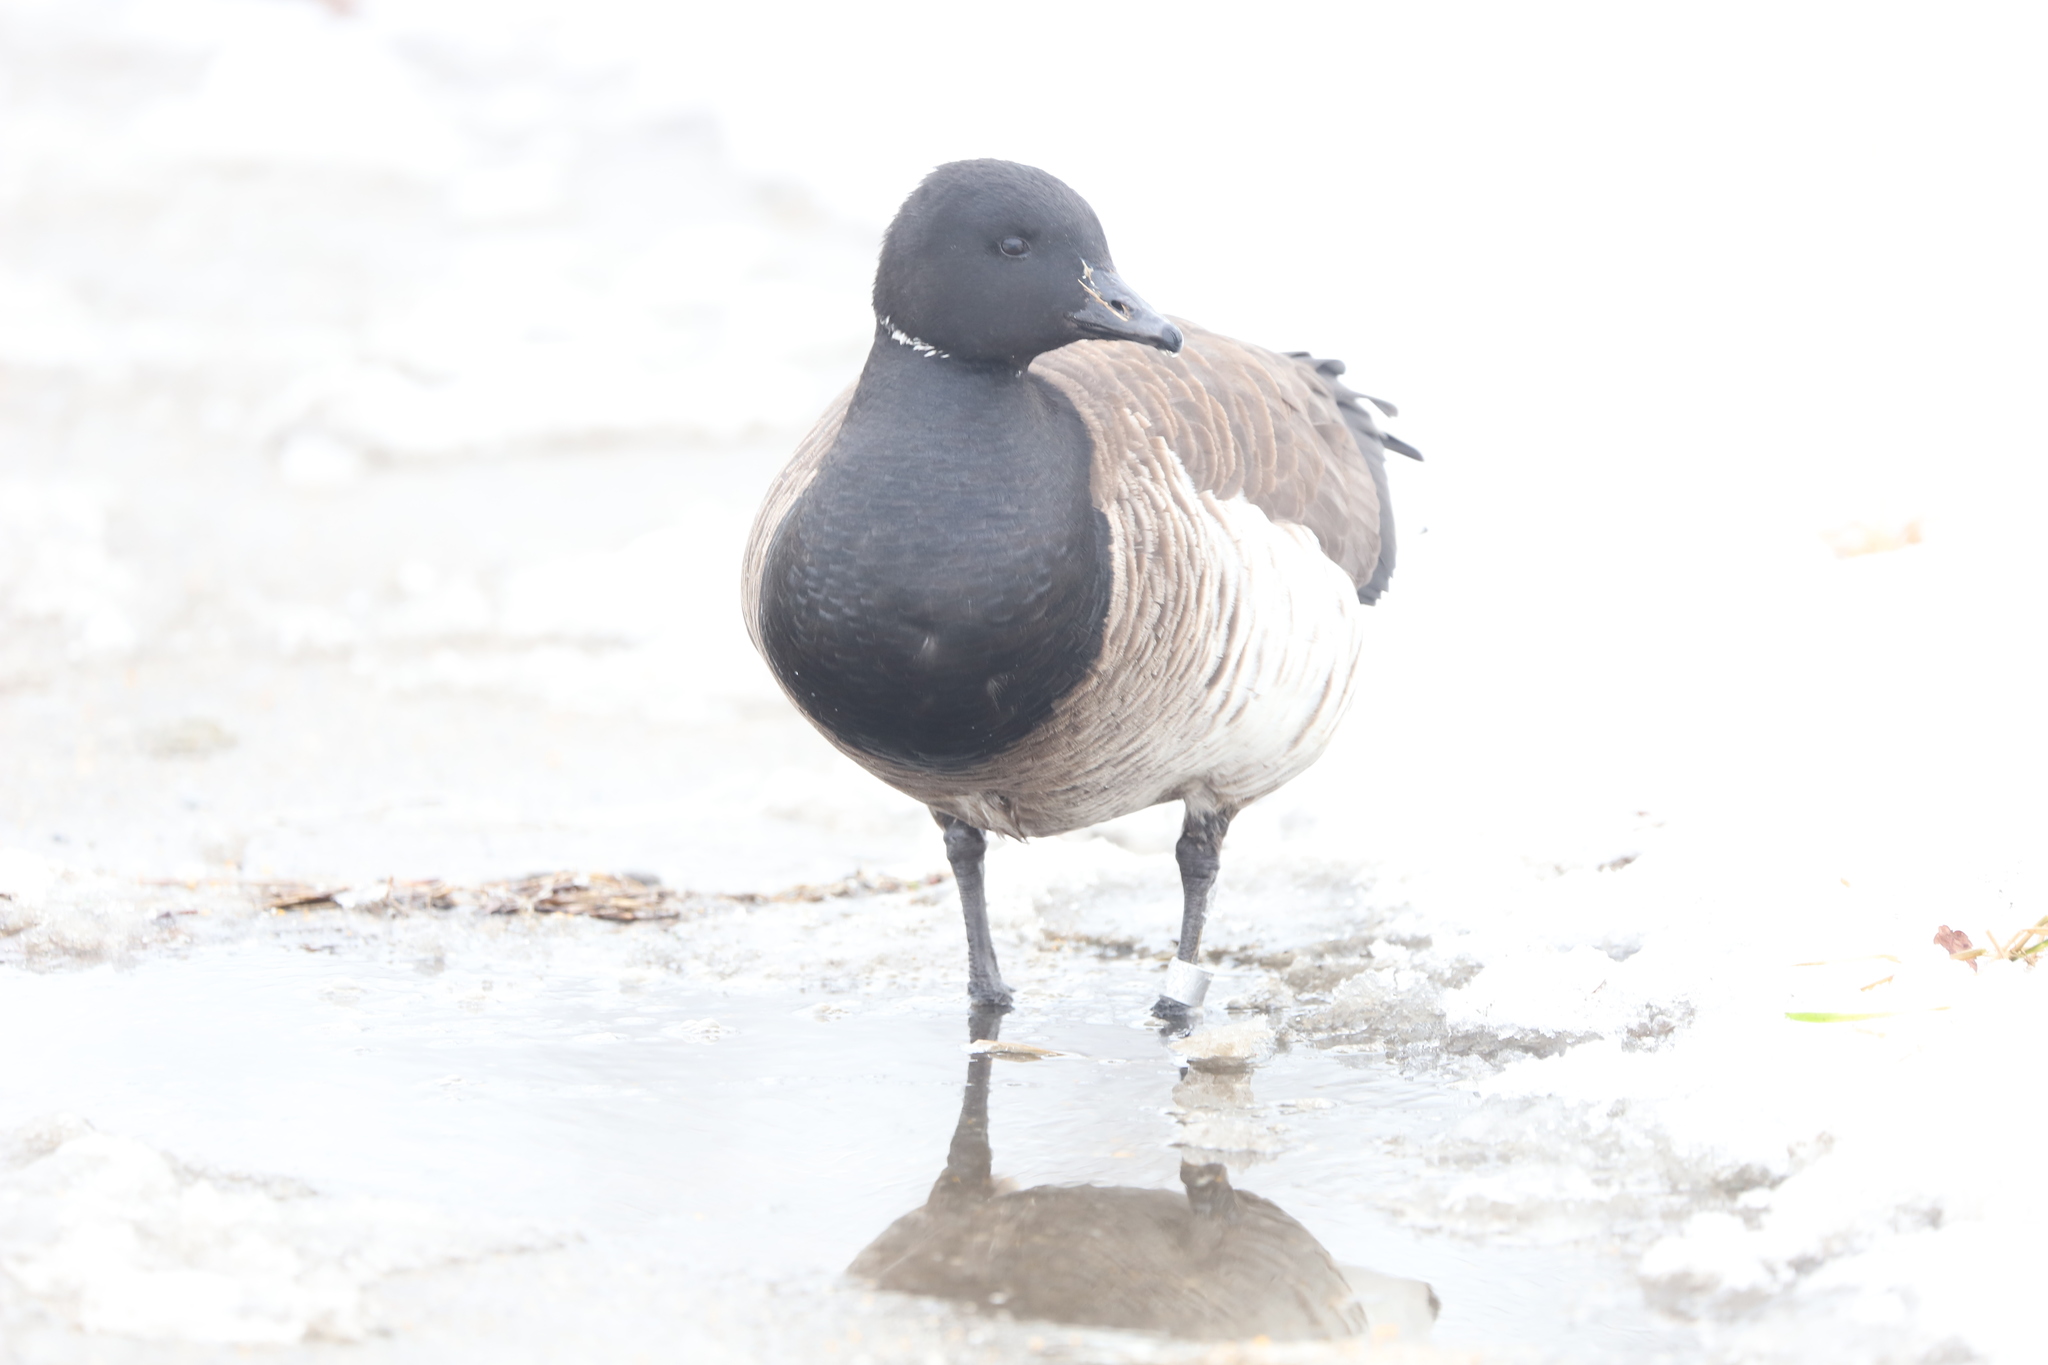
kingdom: Animalia
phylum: Chordata
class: Aves
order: Anseriformes
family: Anatidae
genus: Branta
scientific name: Branta bernicla
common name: Brant goose
